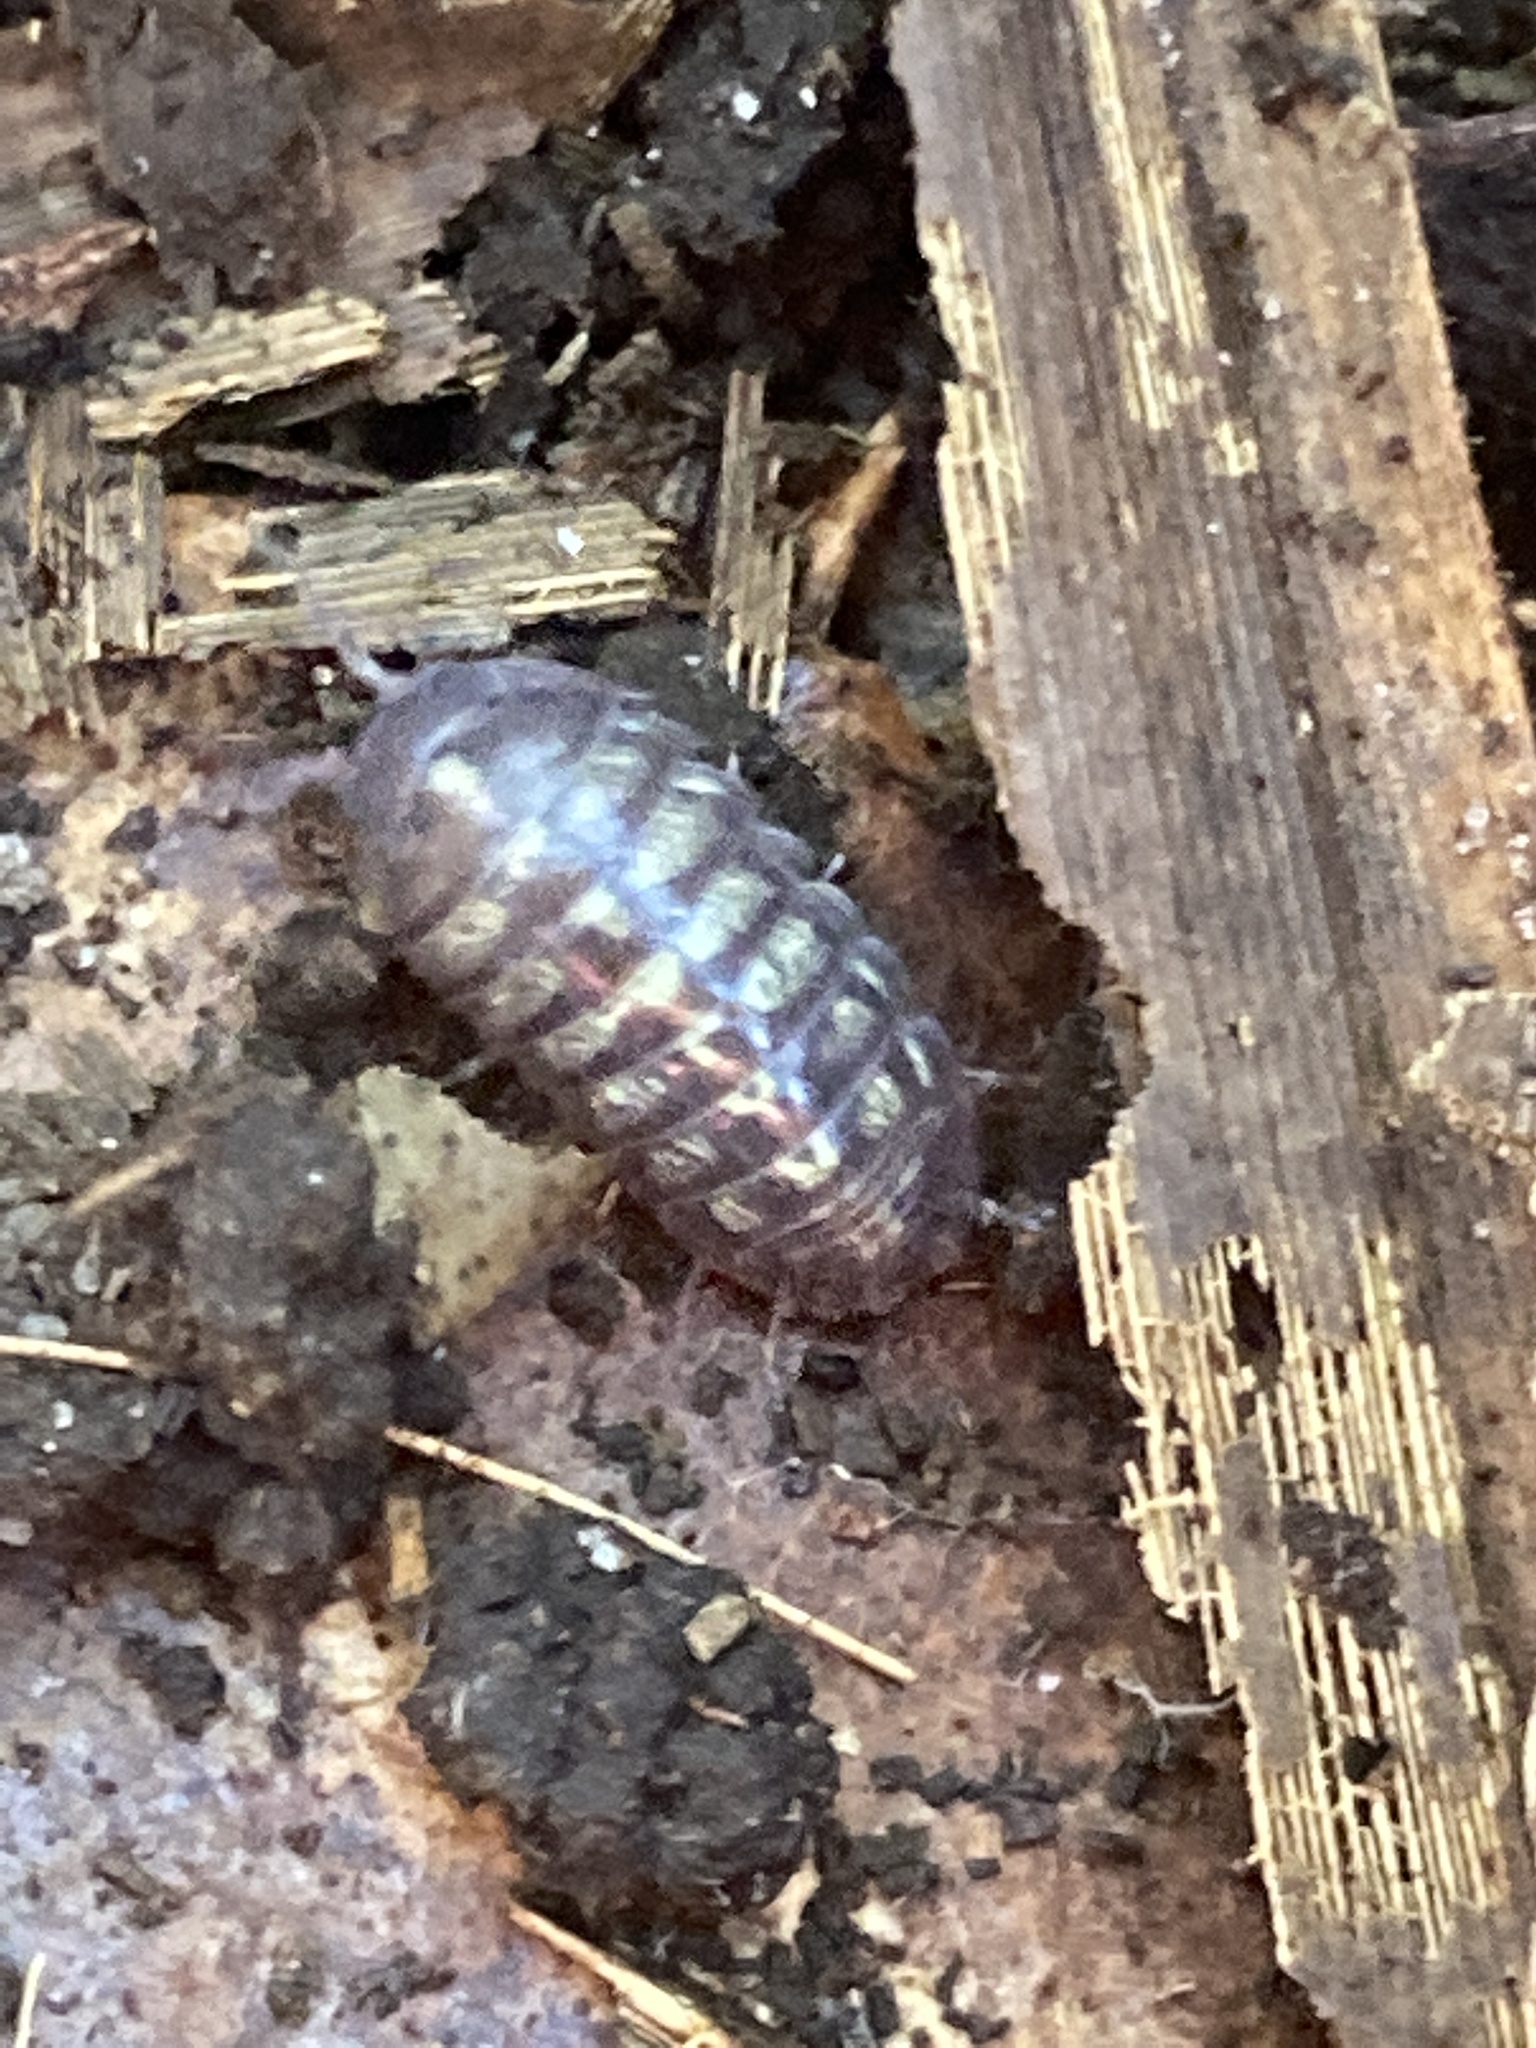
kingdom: Animalia
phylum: Arthropoda
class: Malacostraca
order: Isopoda
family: Armadillidiidae
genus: Armadillidium
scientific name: Armadillidium vulgare
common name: Common pill woodlouse
